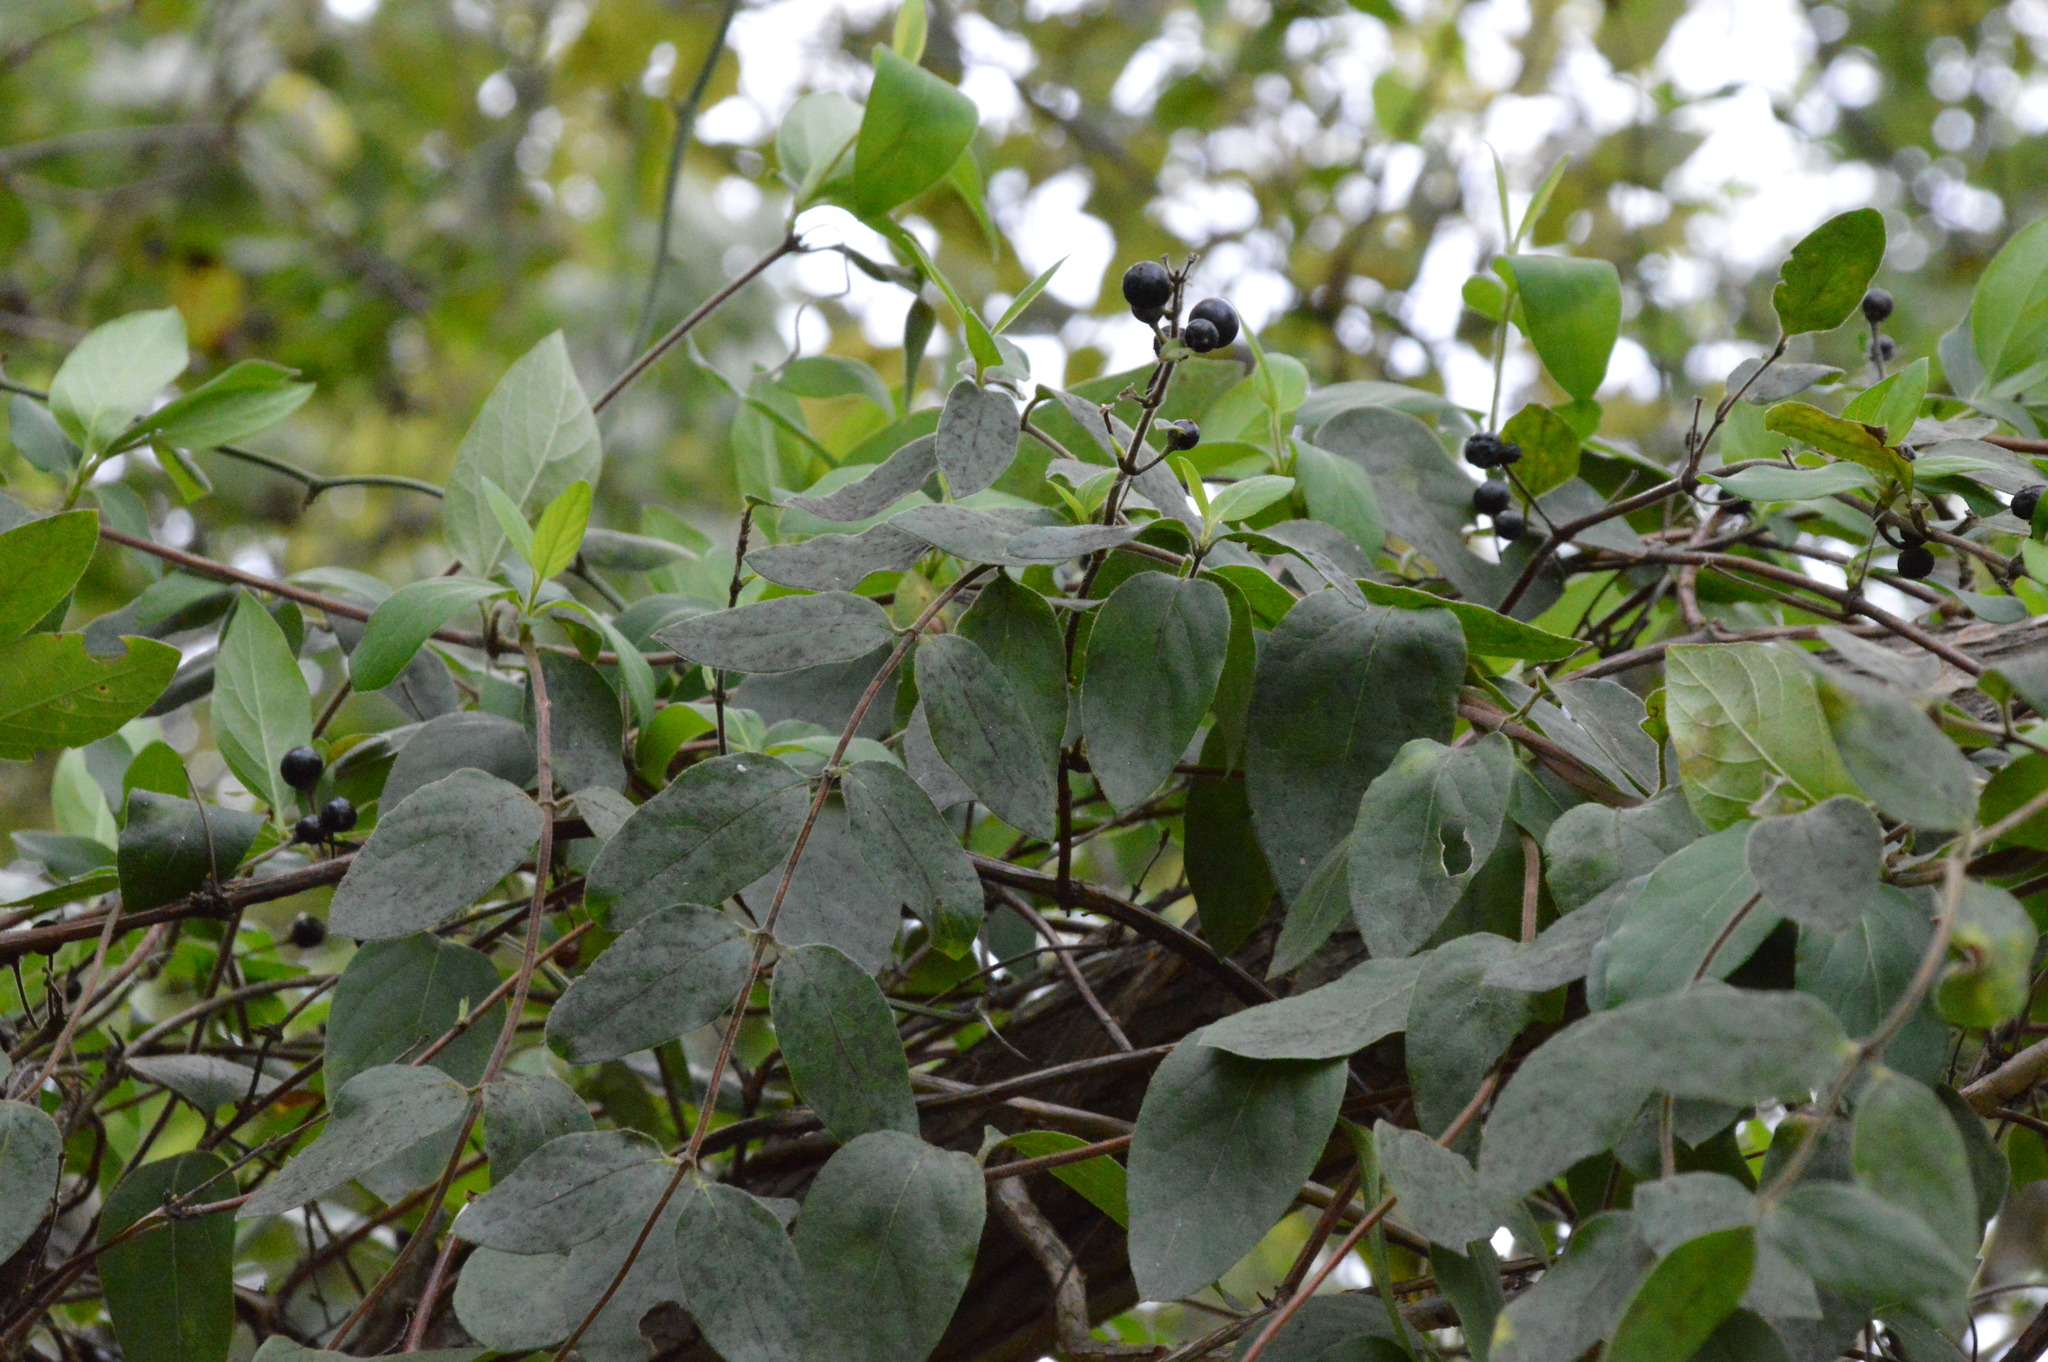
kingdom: Plantae
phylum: Tracheophyta
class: Magnoliopsida
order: Dipsacales
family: Caprifoliaceae
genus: Lonicera
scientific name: Lonicera japonica
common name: Japanese honeysuckle
